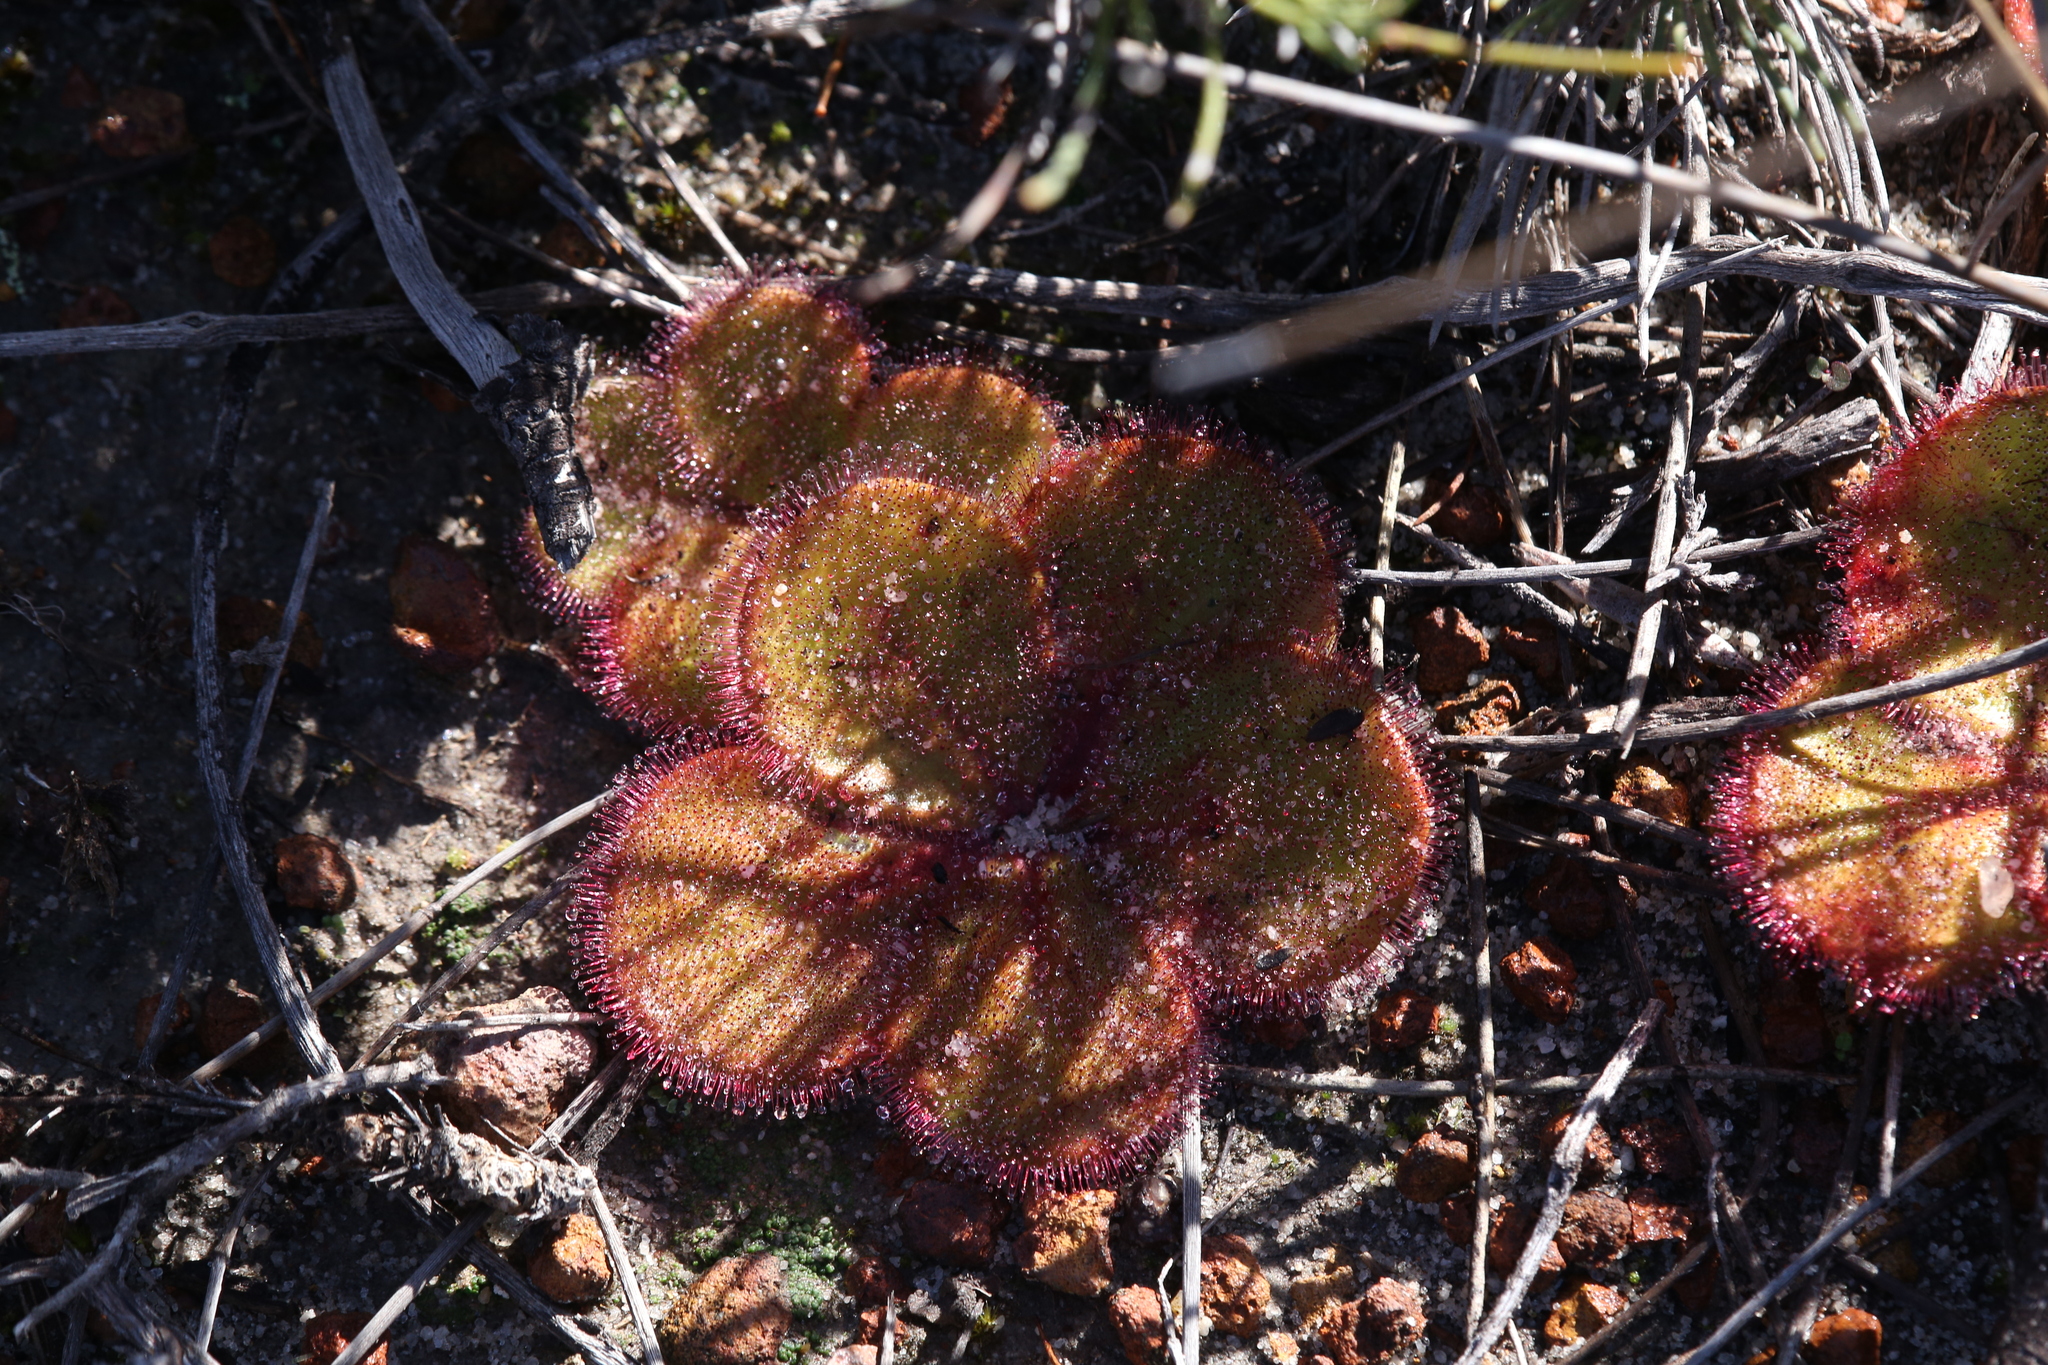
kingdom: Plantae
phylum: Tracheophyta
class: Magnoliopsida
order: Caryophyllales
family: Droseraceae
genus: Drosera
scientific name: Drosera erythrorhiza
